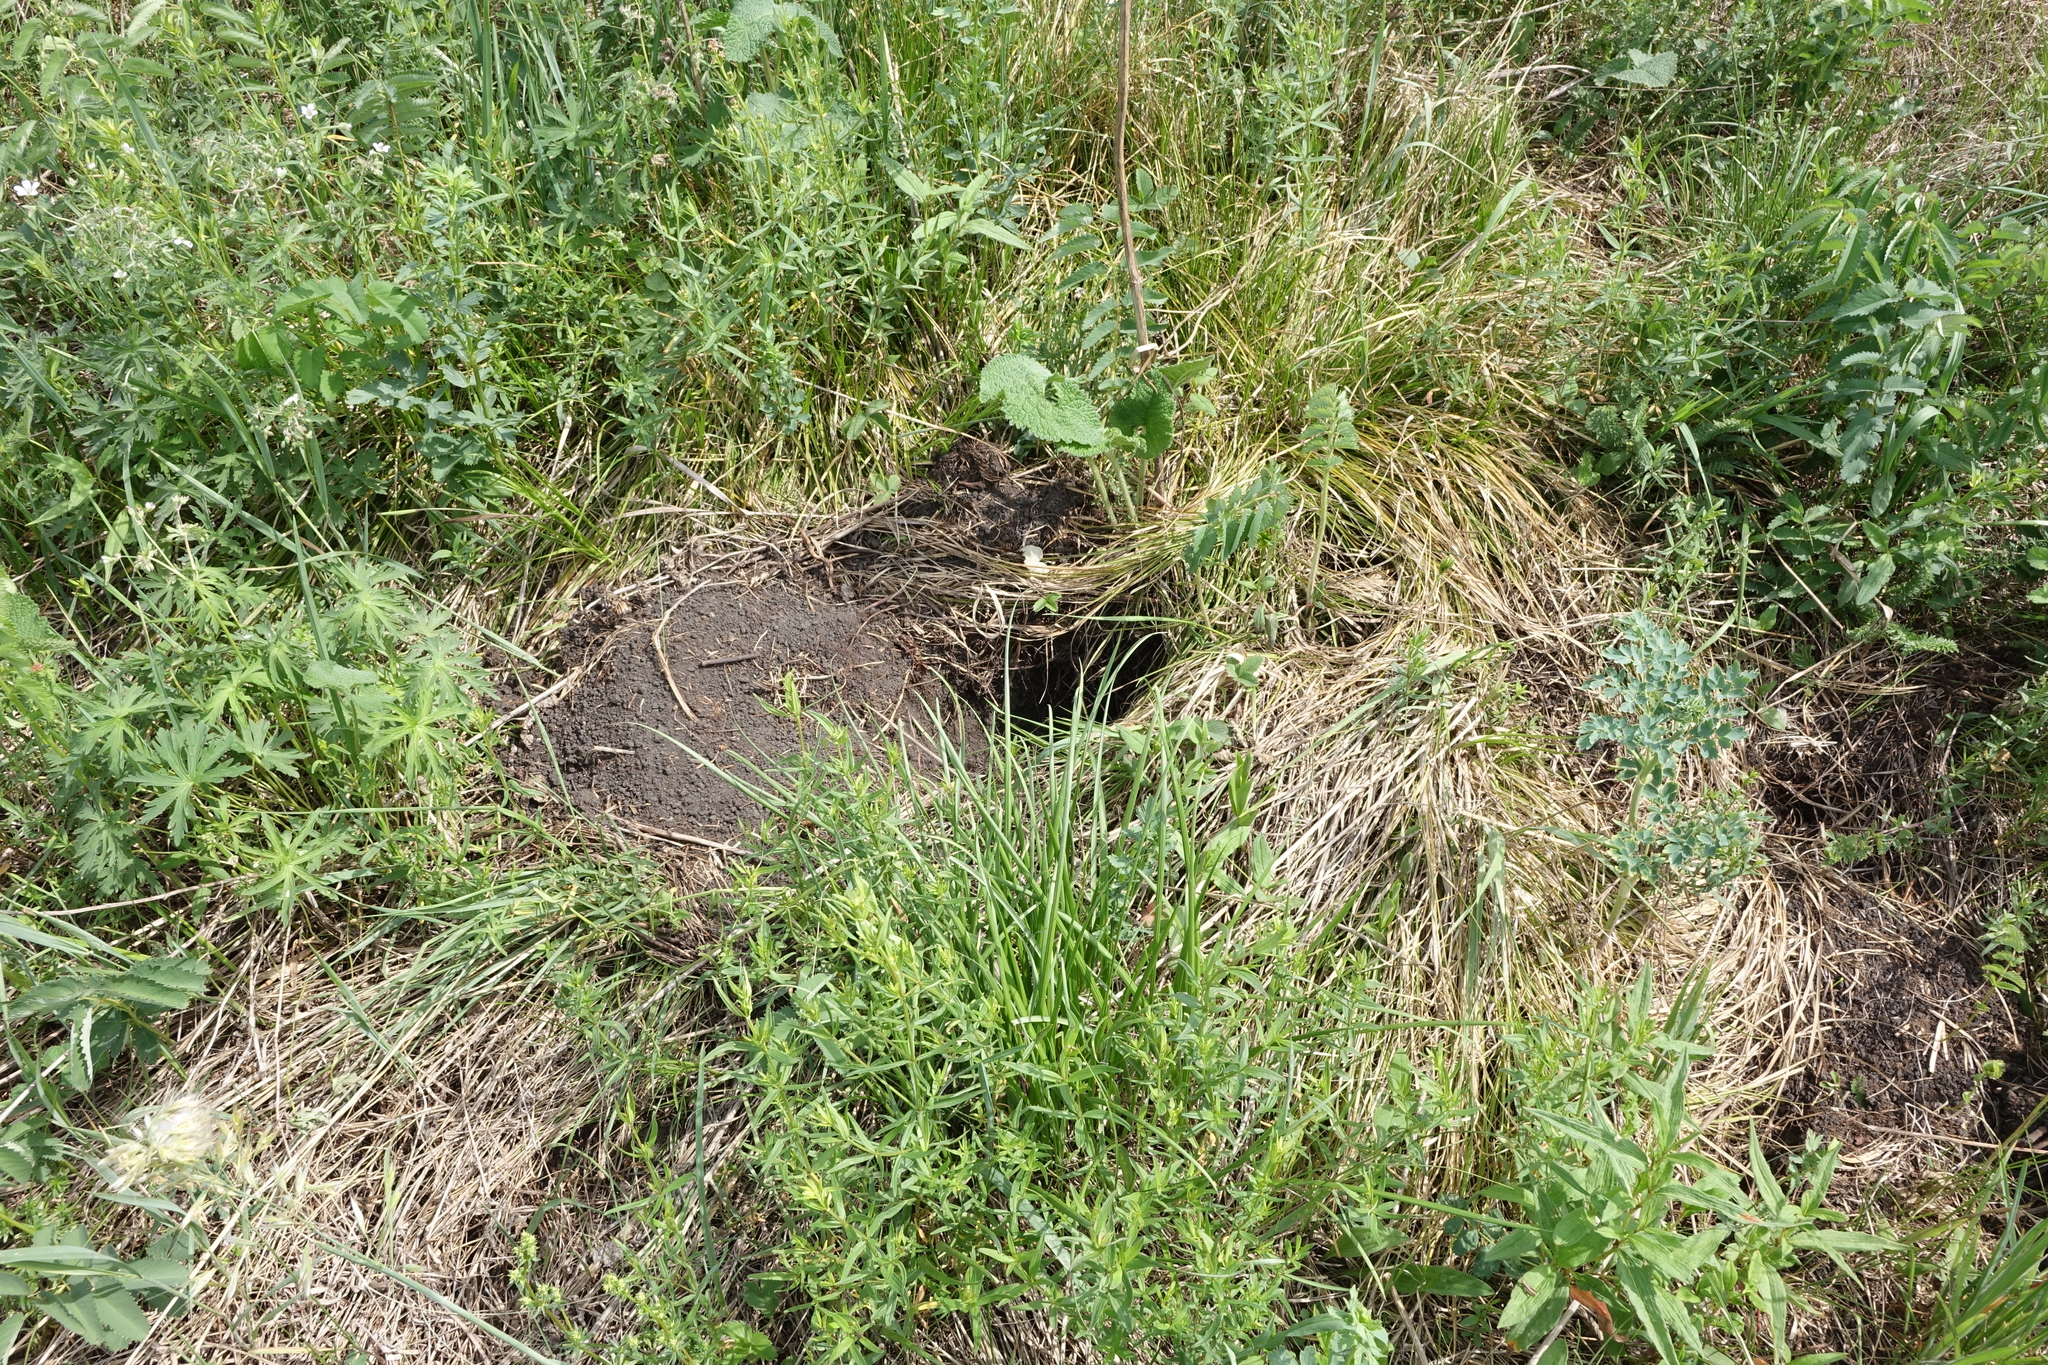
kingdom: Animalia
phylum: Chordata
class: Mammalia
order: Rodentia
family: Sciuridae
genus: Marmota
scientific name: Marmota kastschenkoi
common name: Forest steppe marmot
